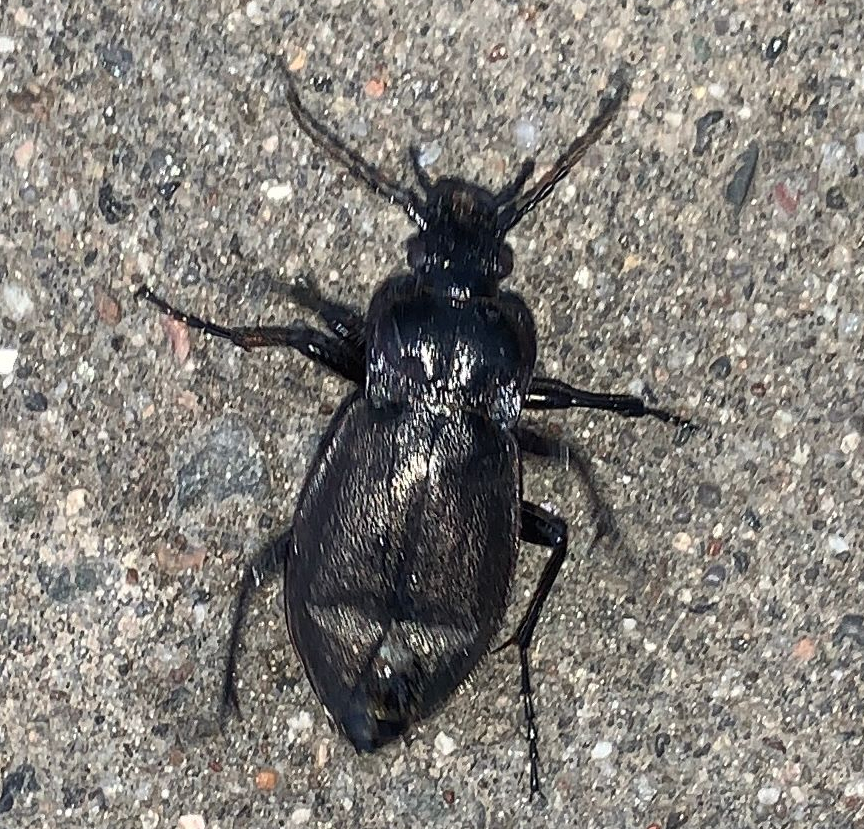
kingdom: Animalia
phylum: Arthropoda
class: Insecta
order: Coleoptera
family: Carabidae
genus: Carabus
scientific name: Carabus nemoralis
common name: European ground beetle
